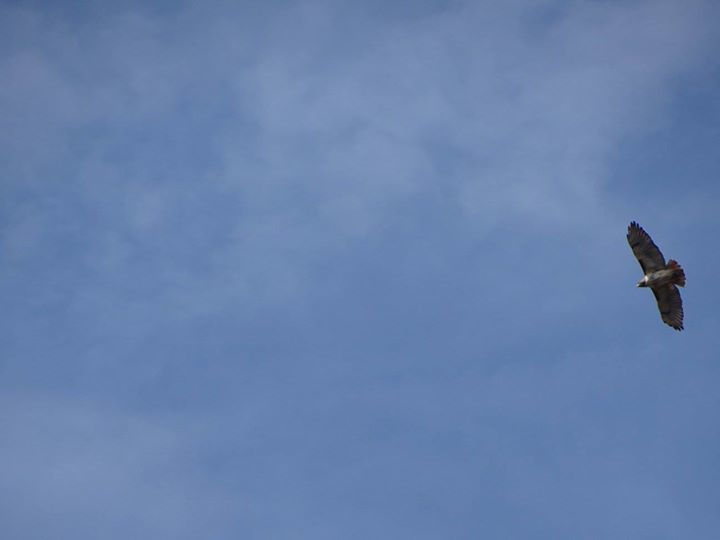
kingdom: Animalia
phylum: Chordata
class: Aves
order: Accipitriformes
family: Accipitridae
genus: Buteo
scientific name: Buteo jamaicensis
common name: Red-tailed hawk
